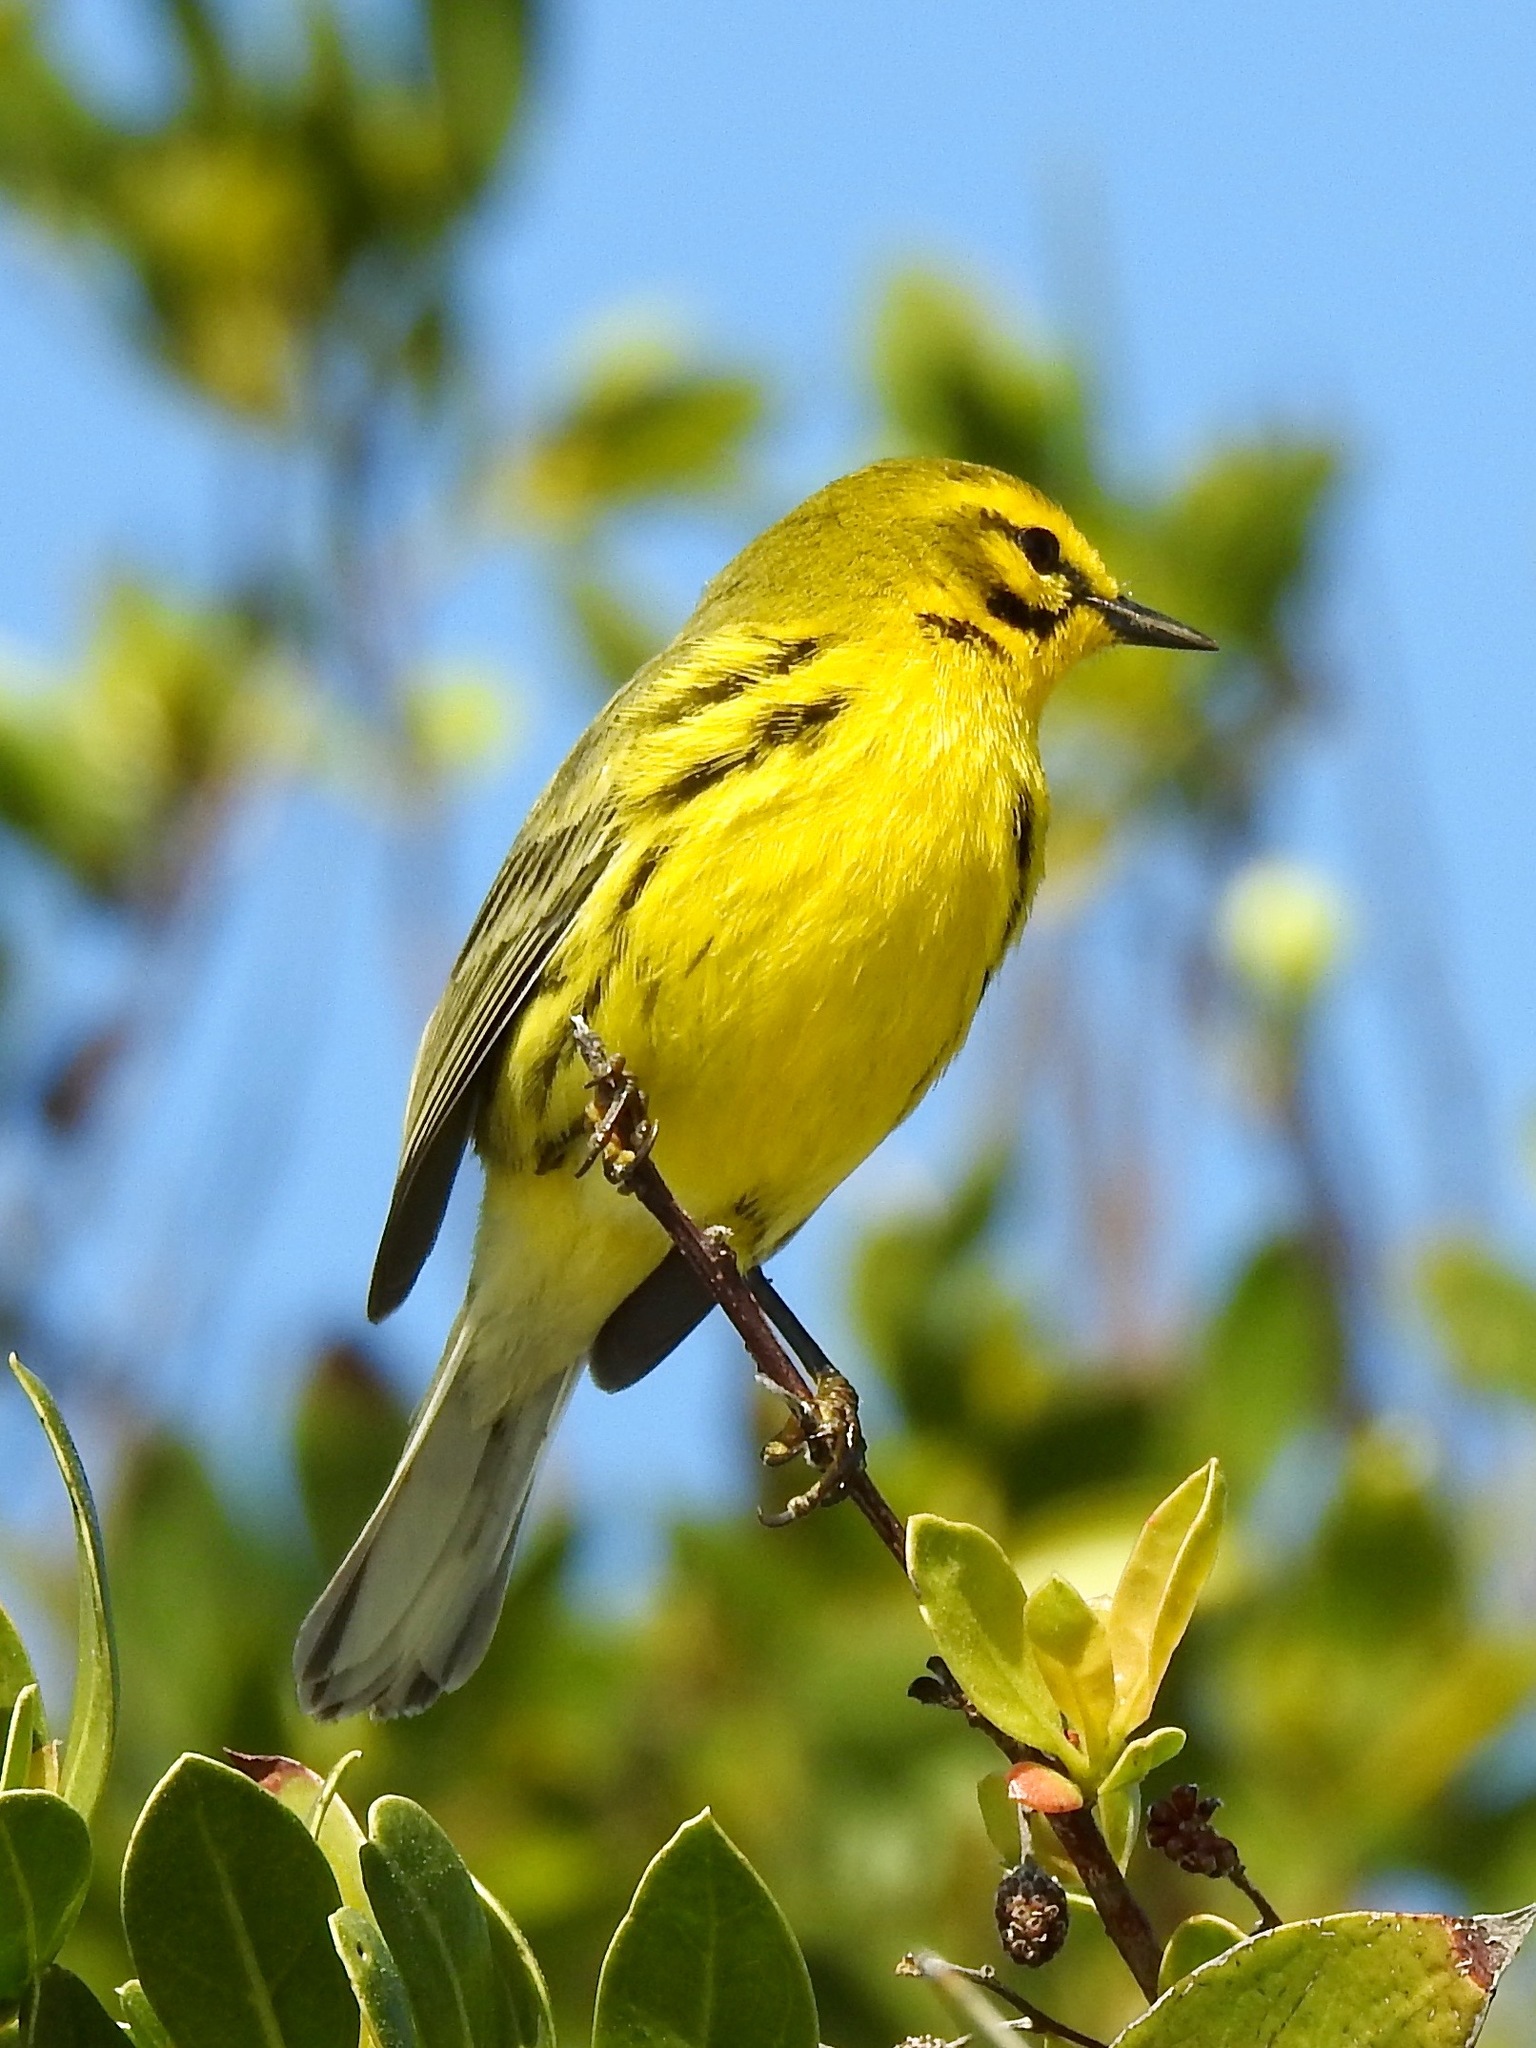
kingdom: Animalia
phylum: Chordata
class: Aves
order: Passeriformes
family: Parulidae
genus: Setophaga
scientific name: Setophaga discolor
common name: Prairie warbler
